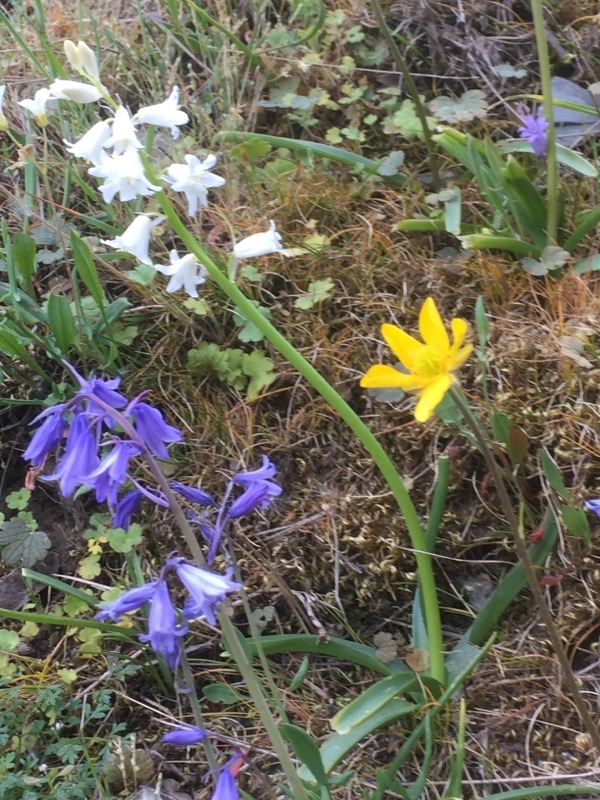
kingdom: Plantae
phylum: Tracheophyta
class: Liliopsida
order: Asparagales
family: Asparagaceae
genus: Hyacinthoides
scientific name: Hyacinthoides hispanica
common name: Spanish bluebell
